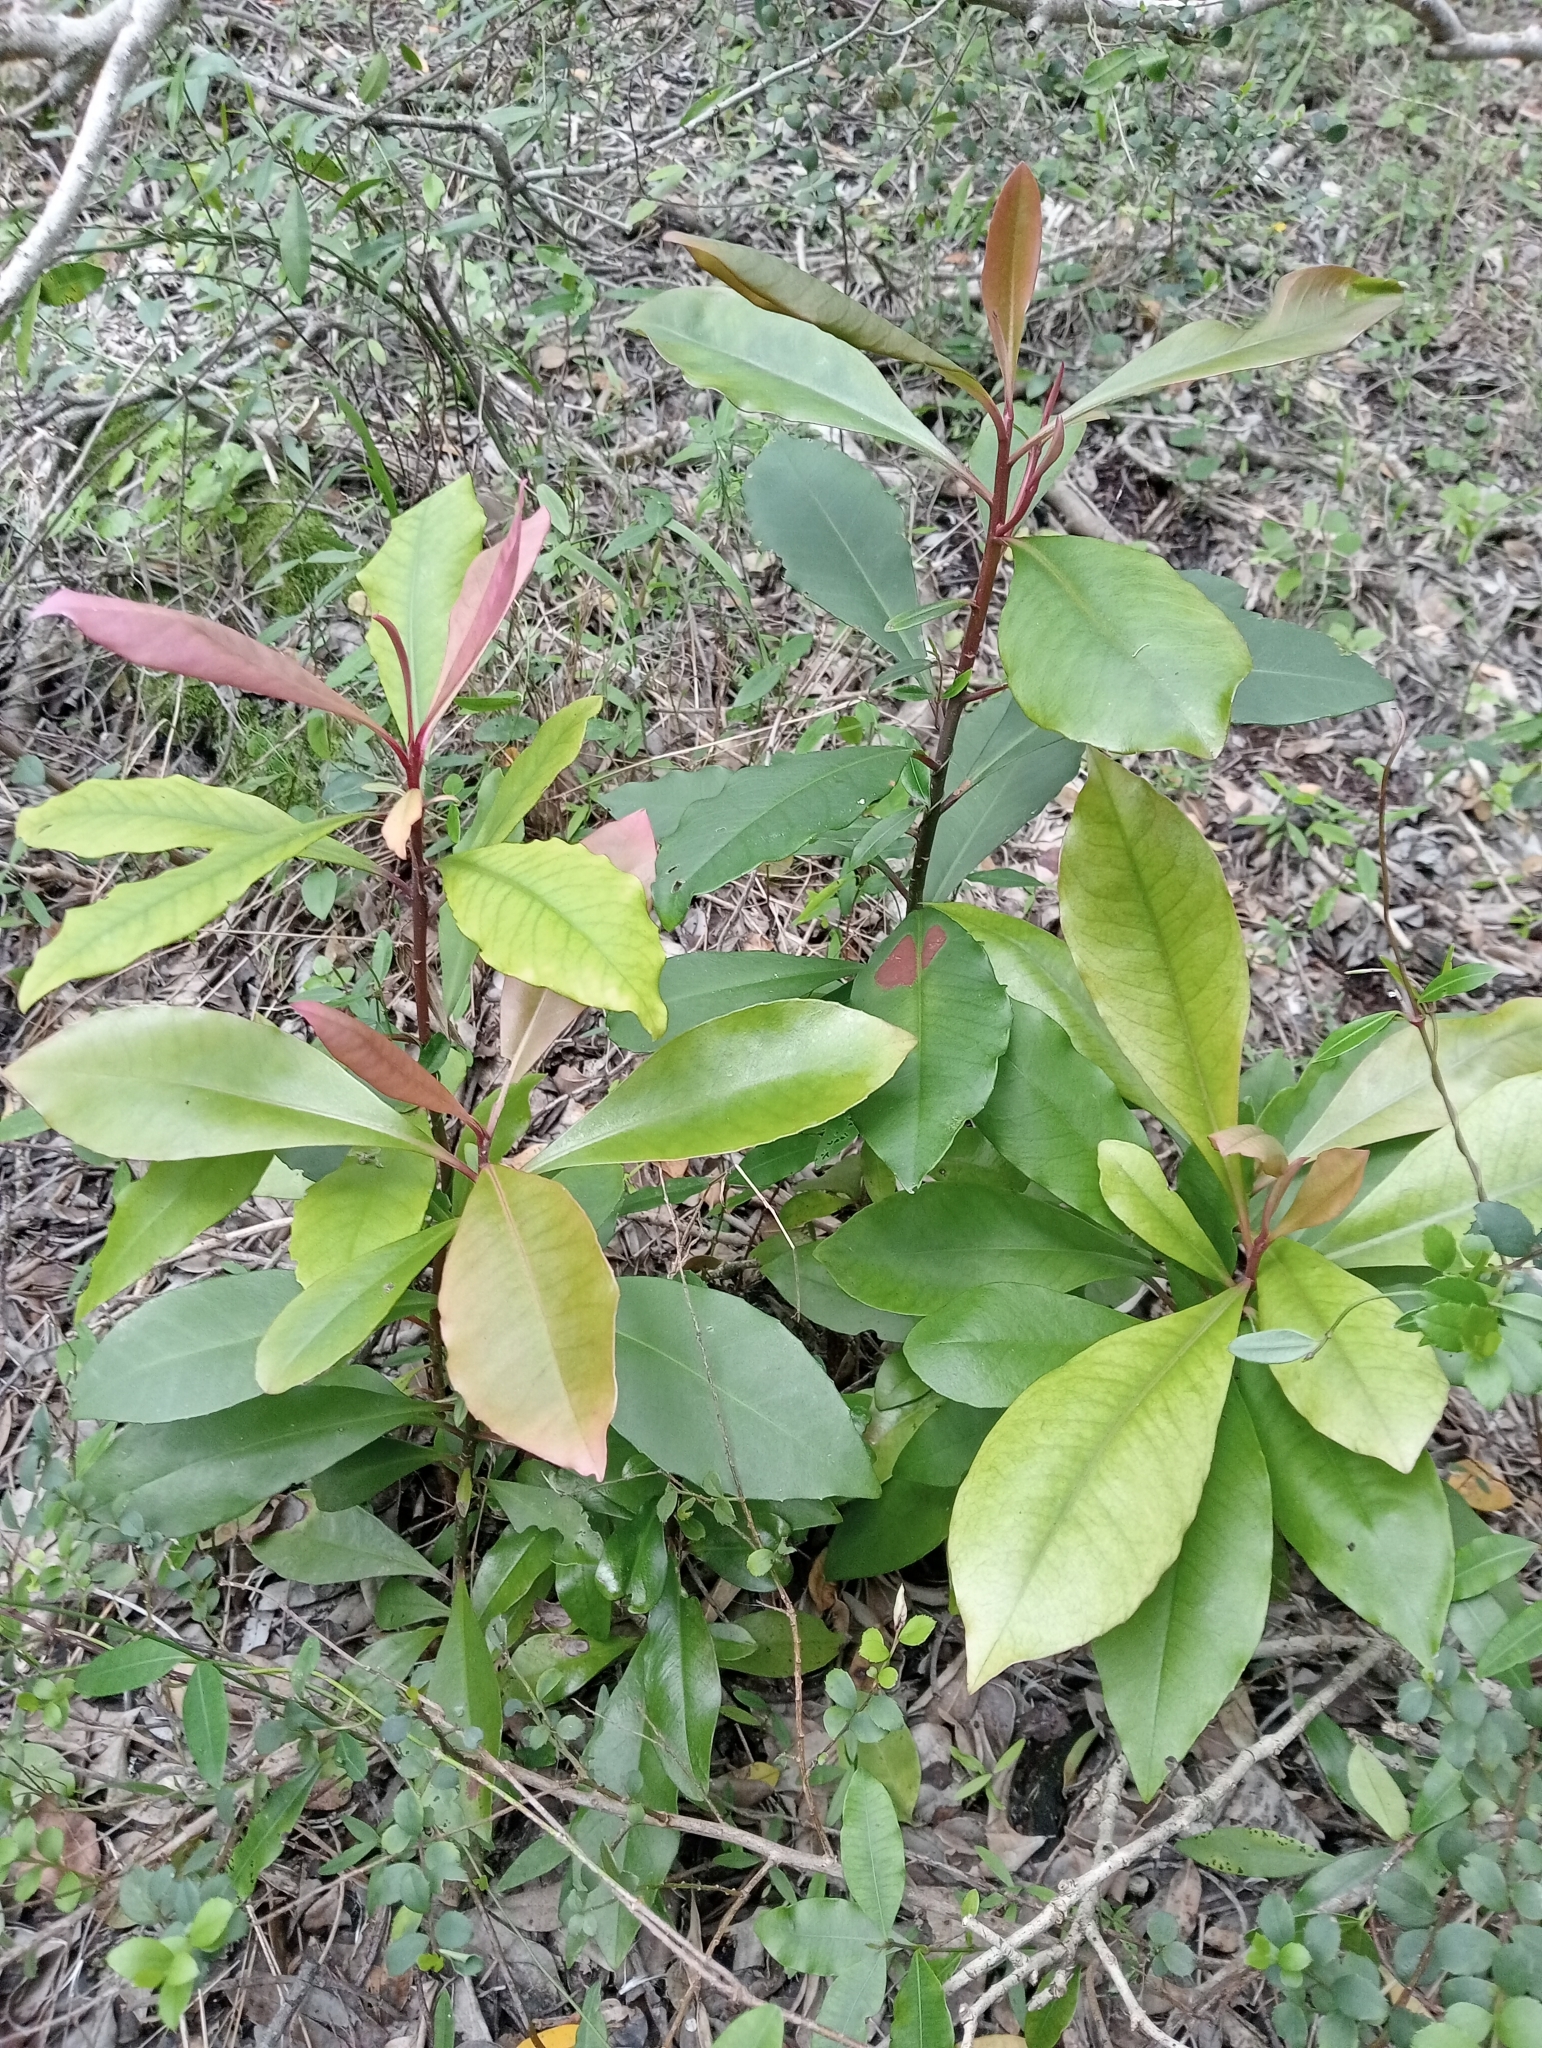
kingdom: Plantae
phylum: Tracheophyta
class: Magnoliopsida
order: Ericales
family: Primulaceae
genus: Myrsine
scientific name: Myrsine melanophloeos
